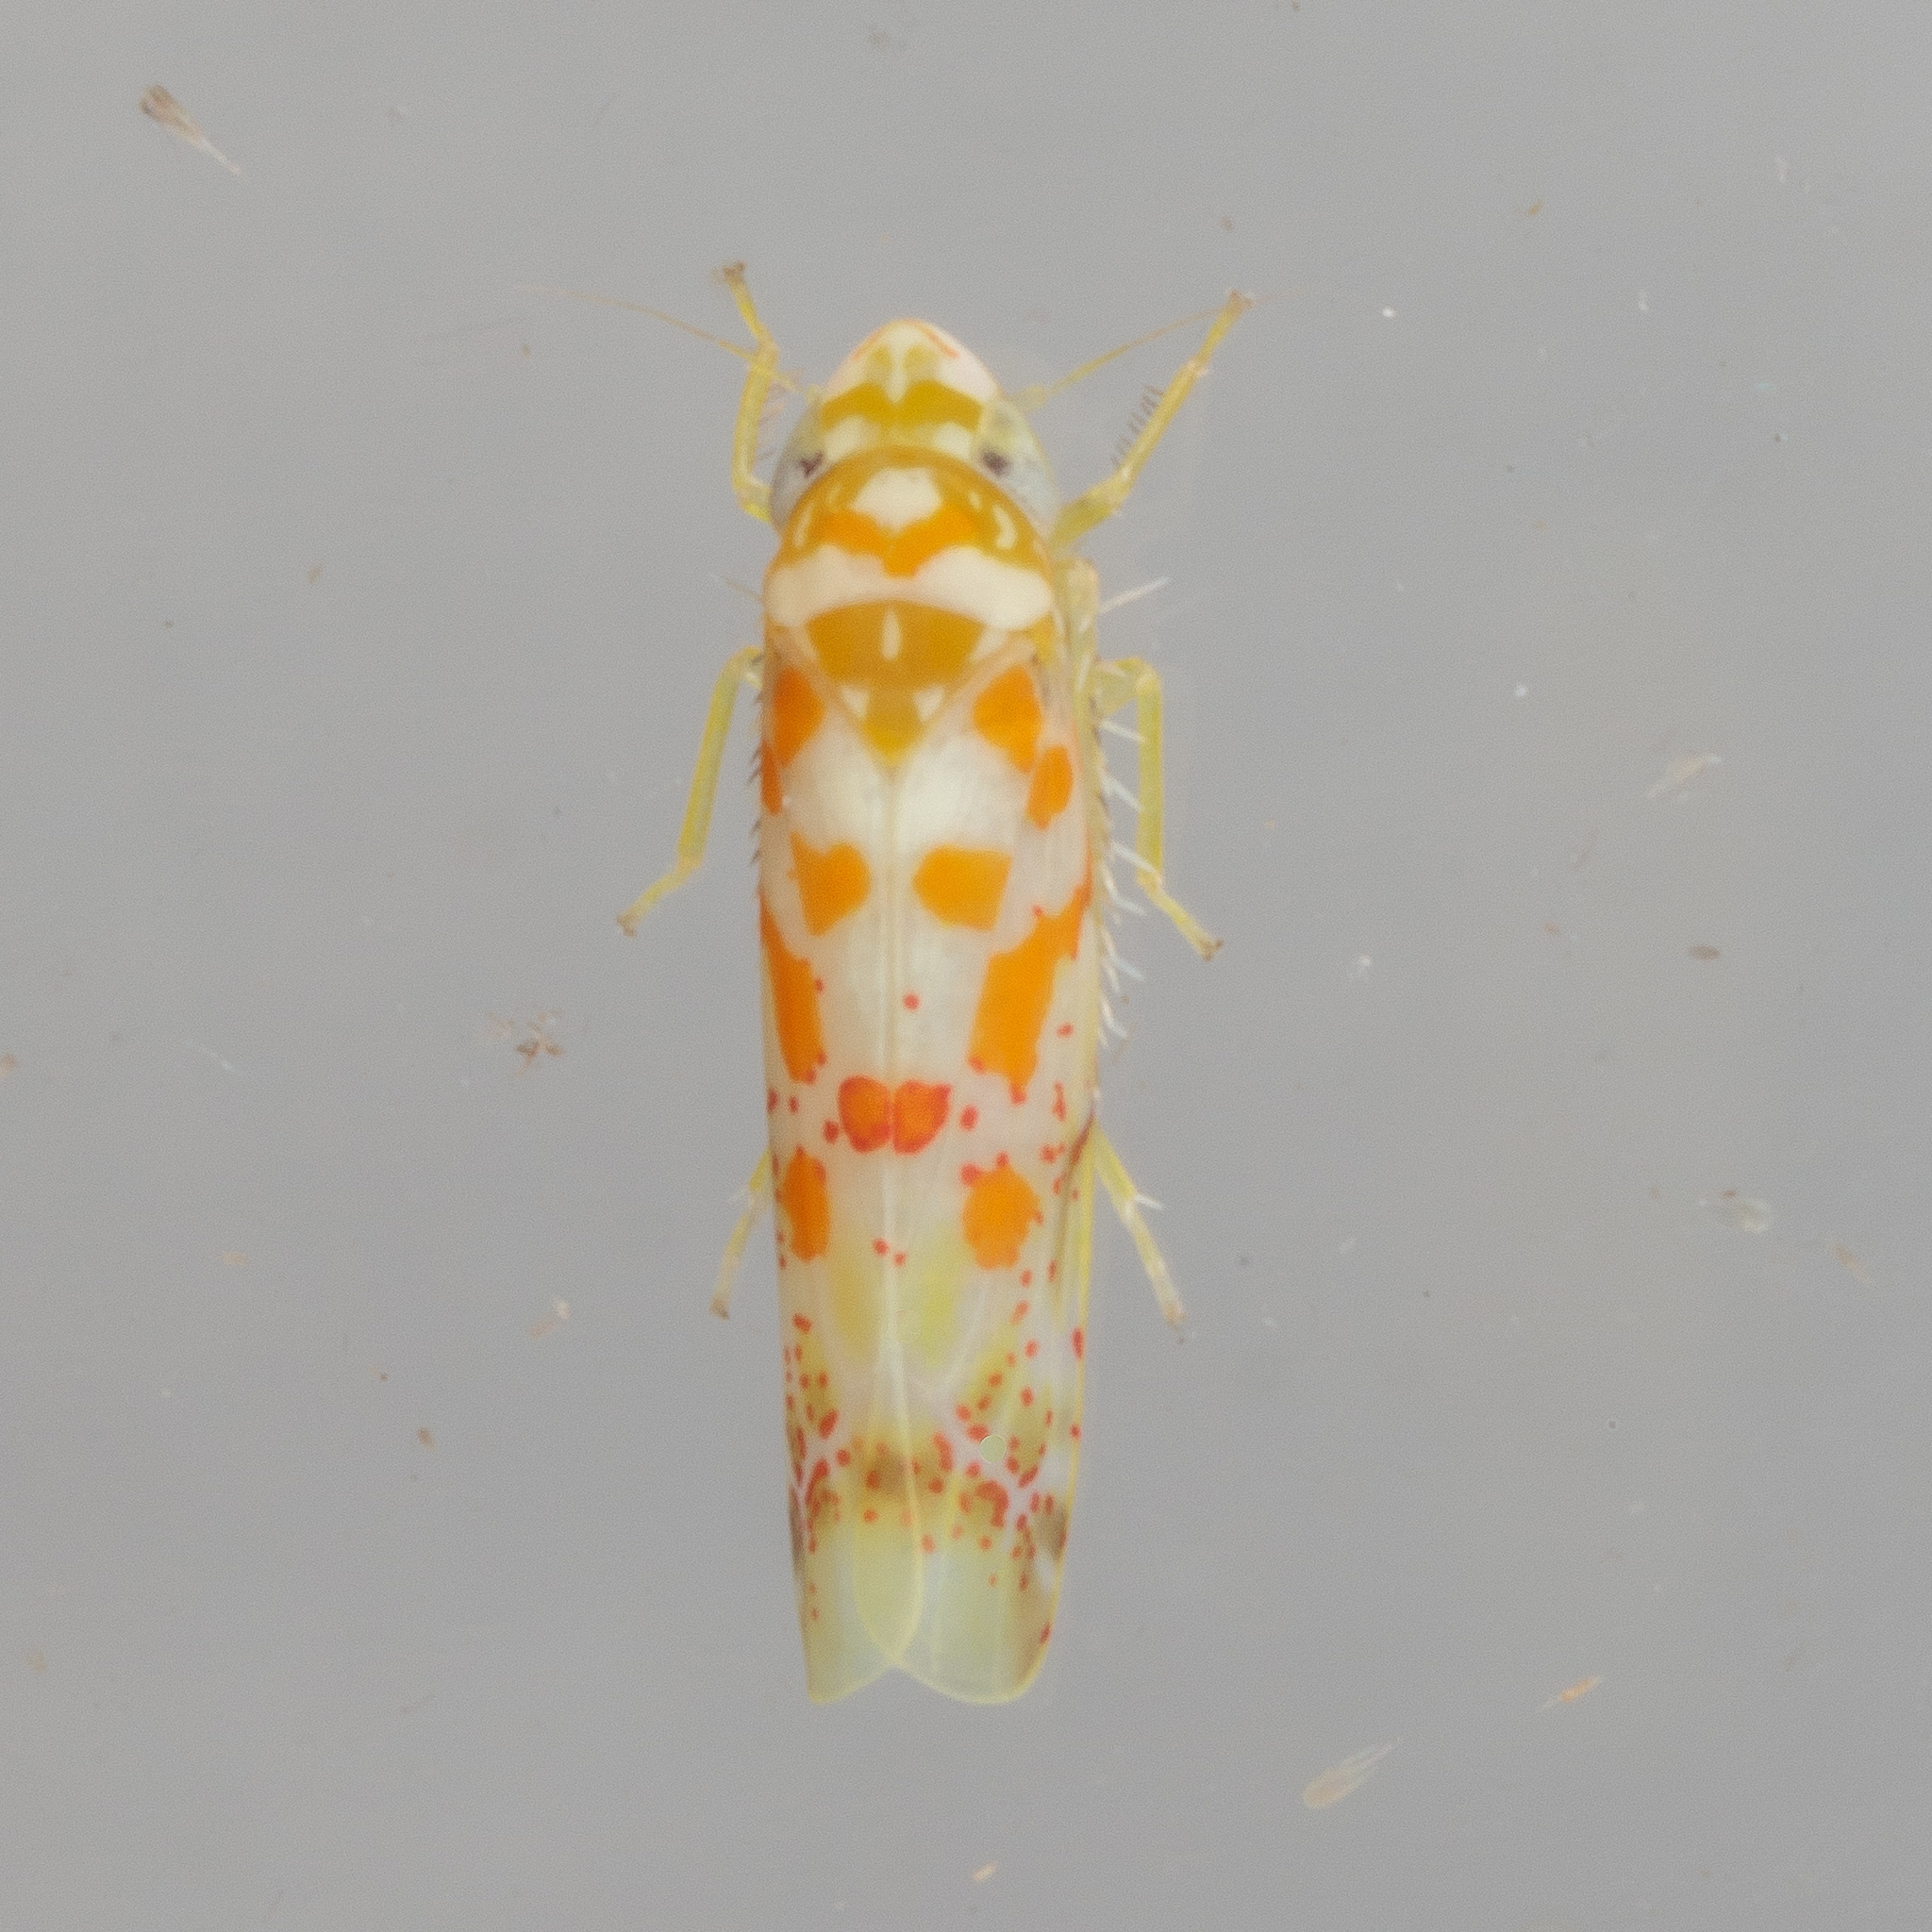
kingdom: Animalia
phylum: Arthropoda
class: Insecta
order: Hemiptera
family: Cicadellidae
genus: Dikrella
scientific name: Dikrella maculata
